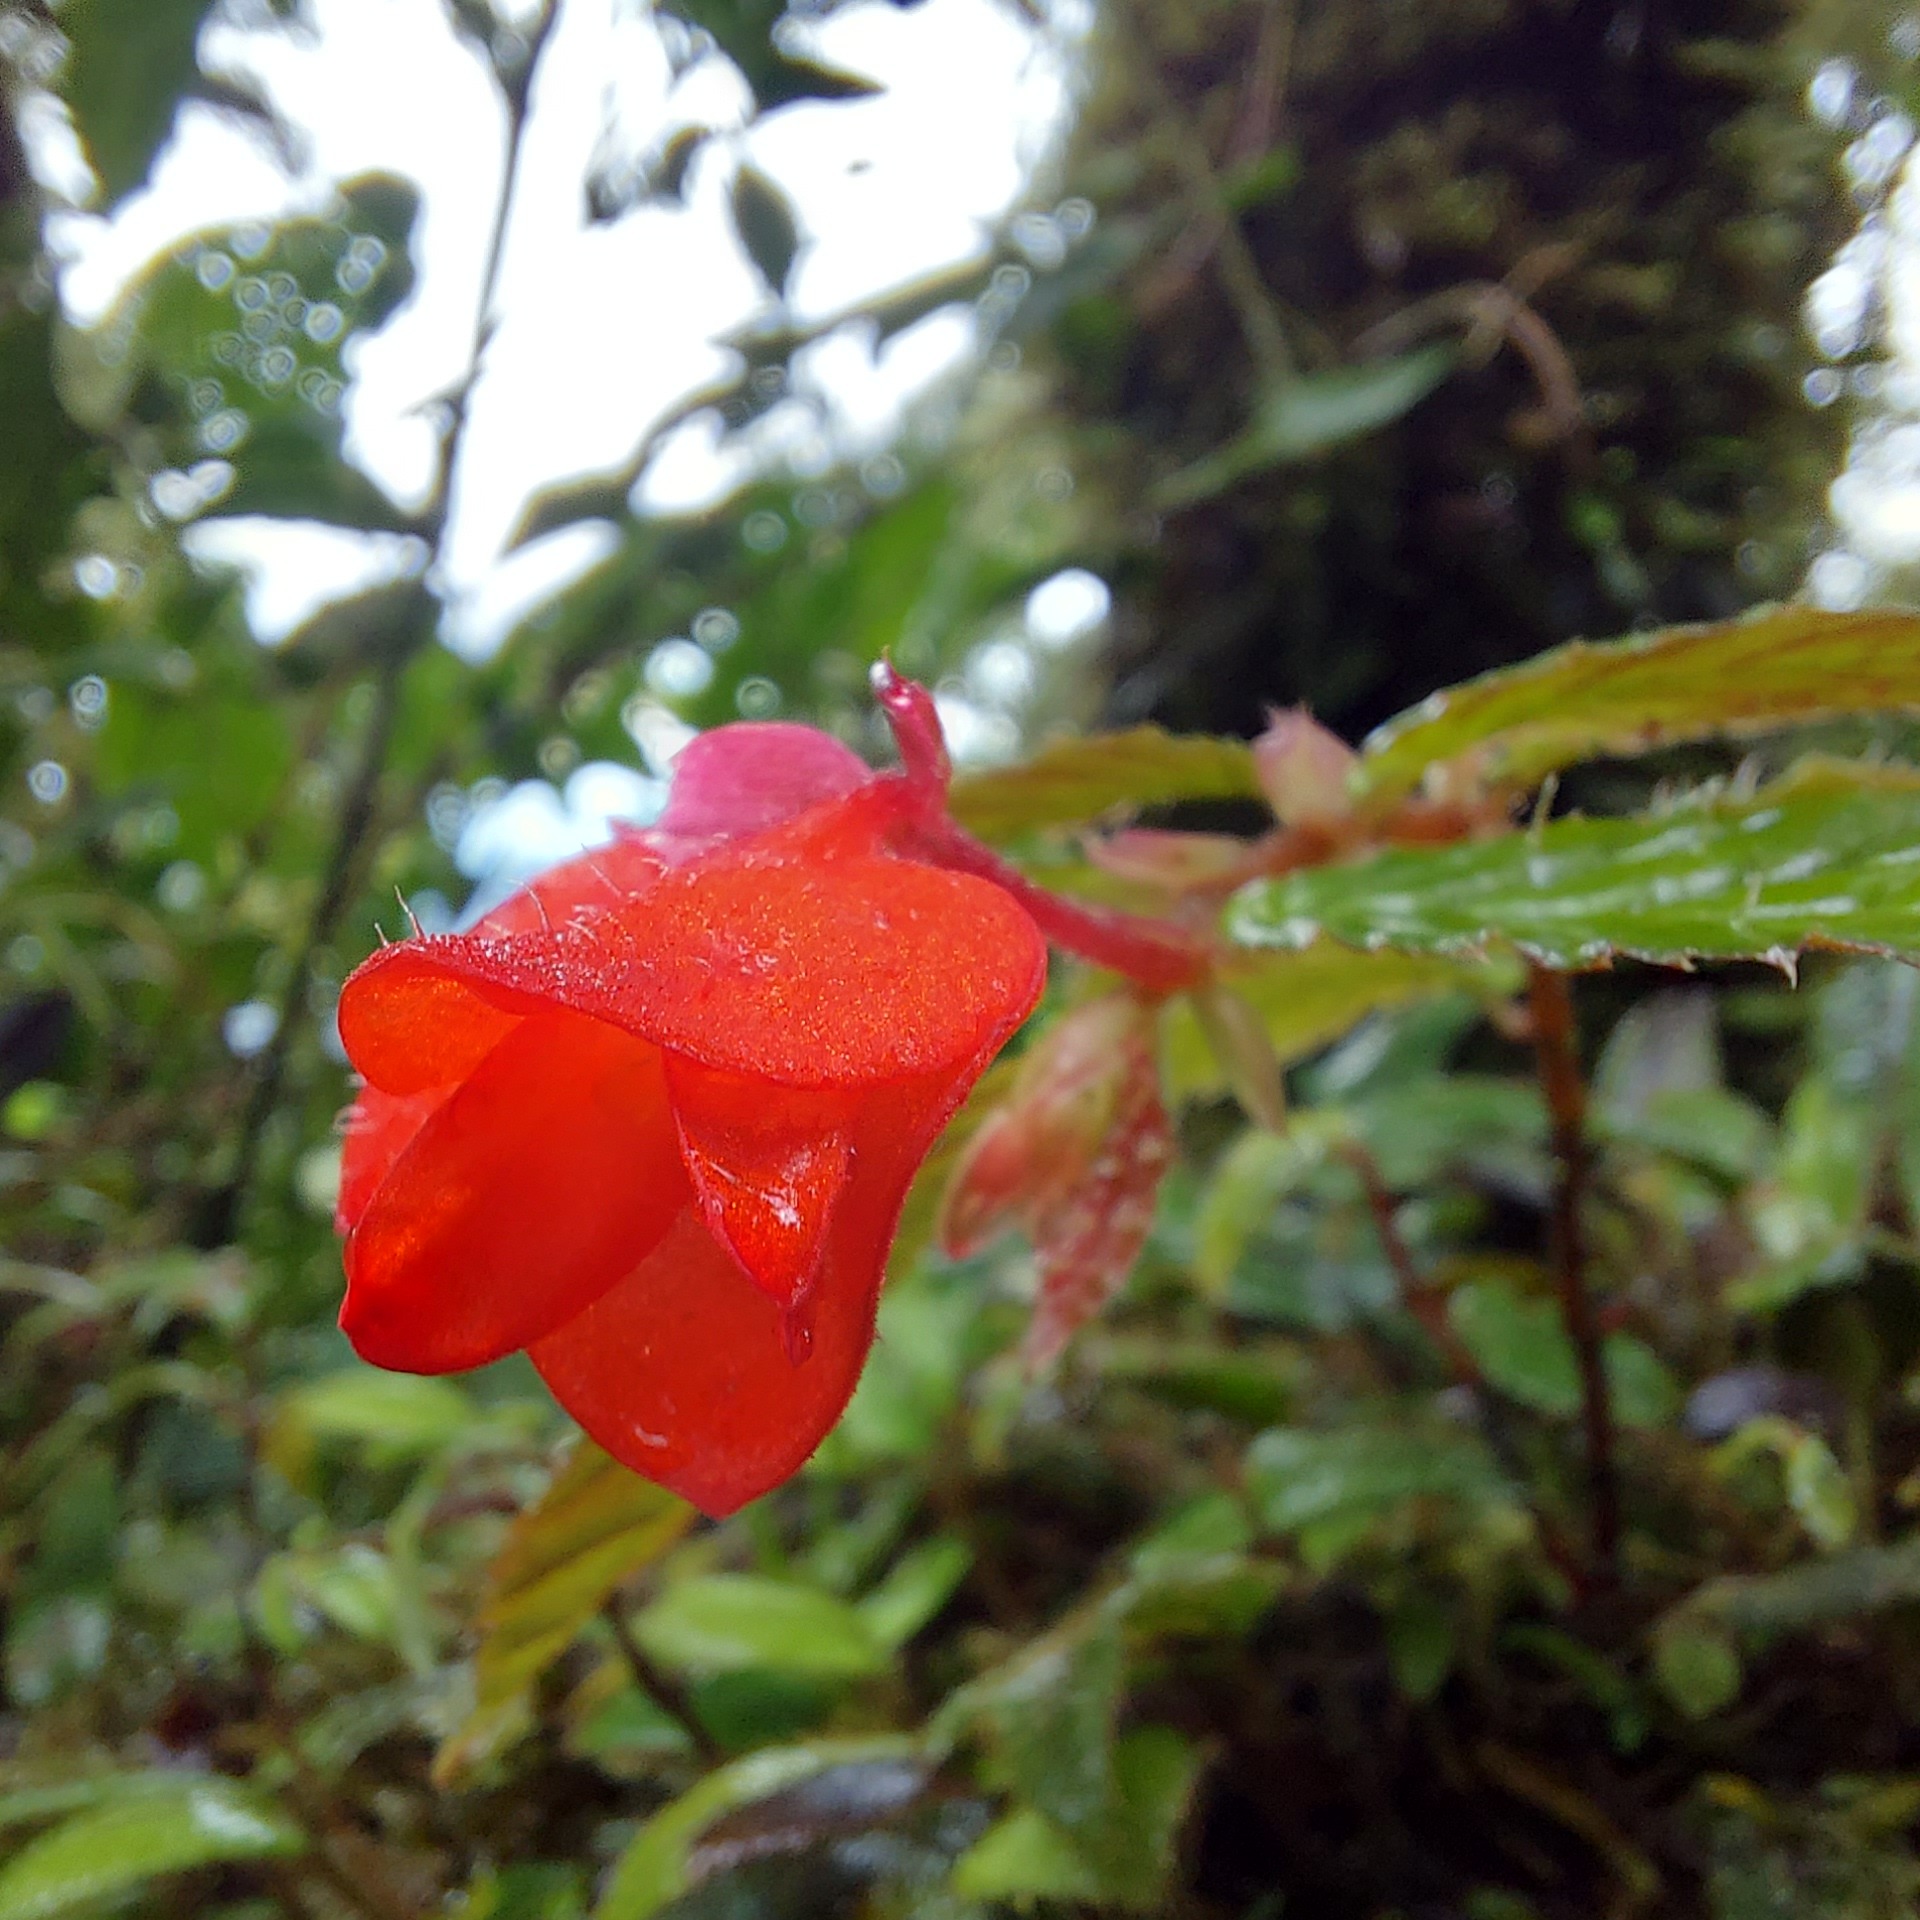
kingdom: Plantae
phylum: Tracheophyta
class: Magnoliopsida
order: Cucurbitales
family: Begoniaceae
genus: Begonia
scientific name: Begonia tetrandra
